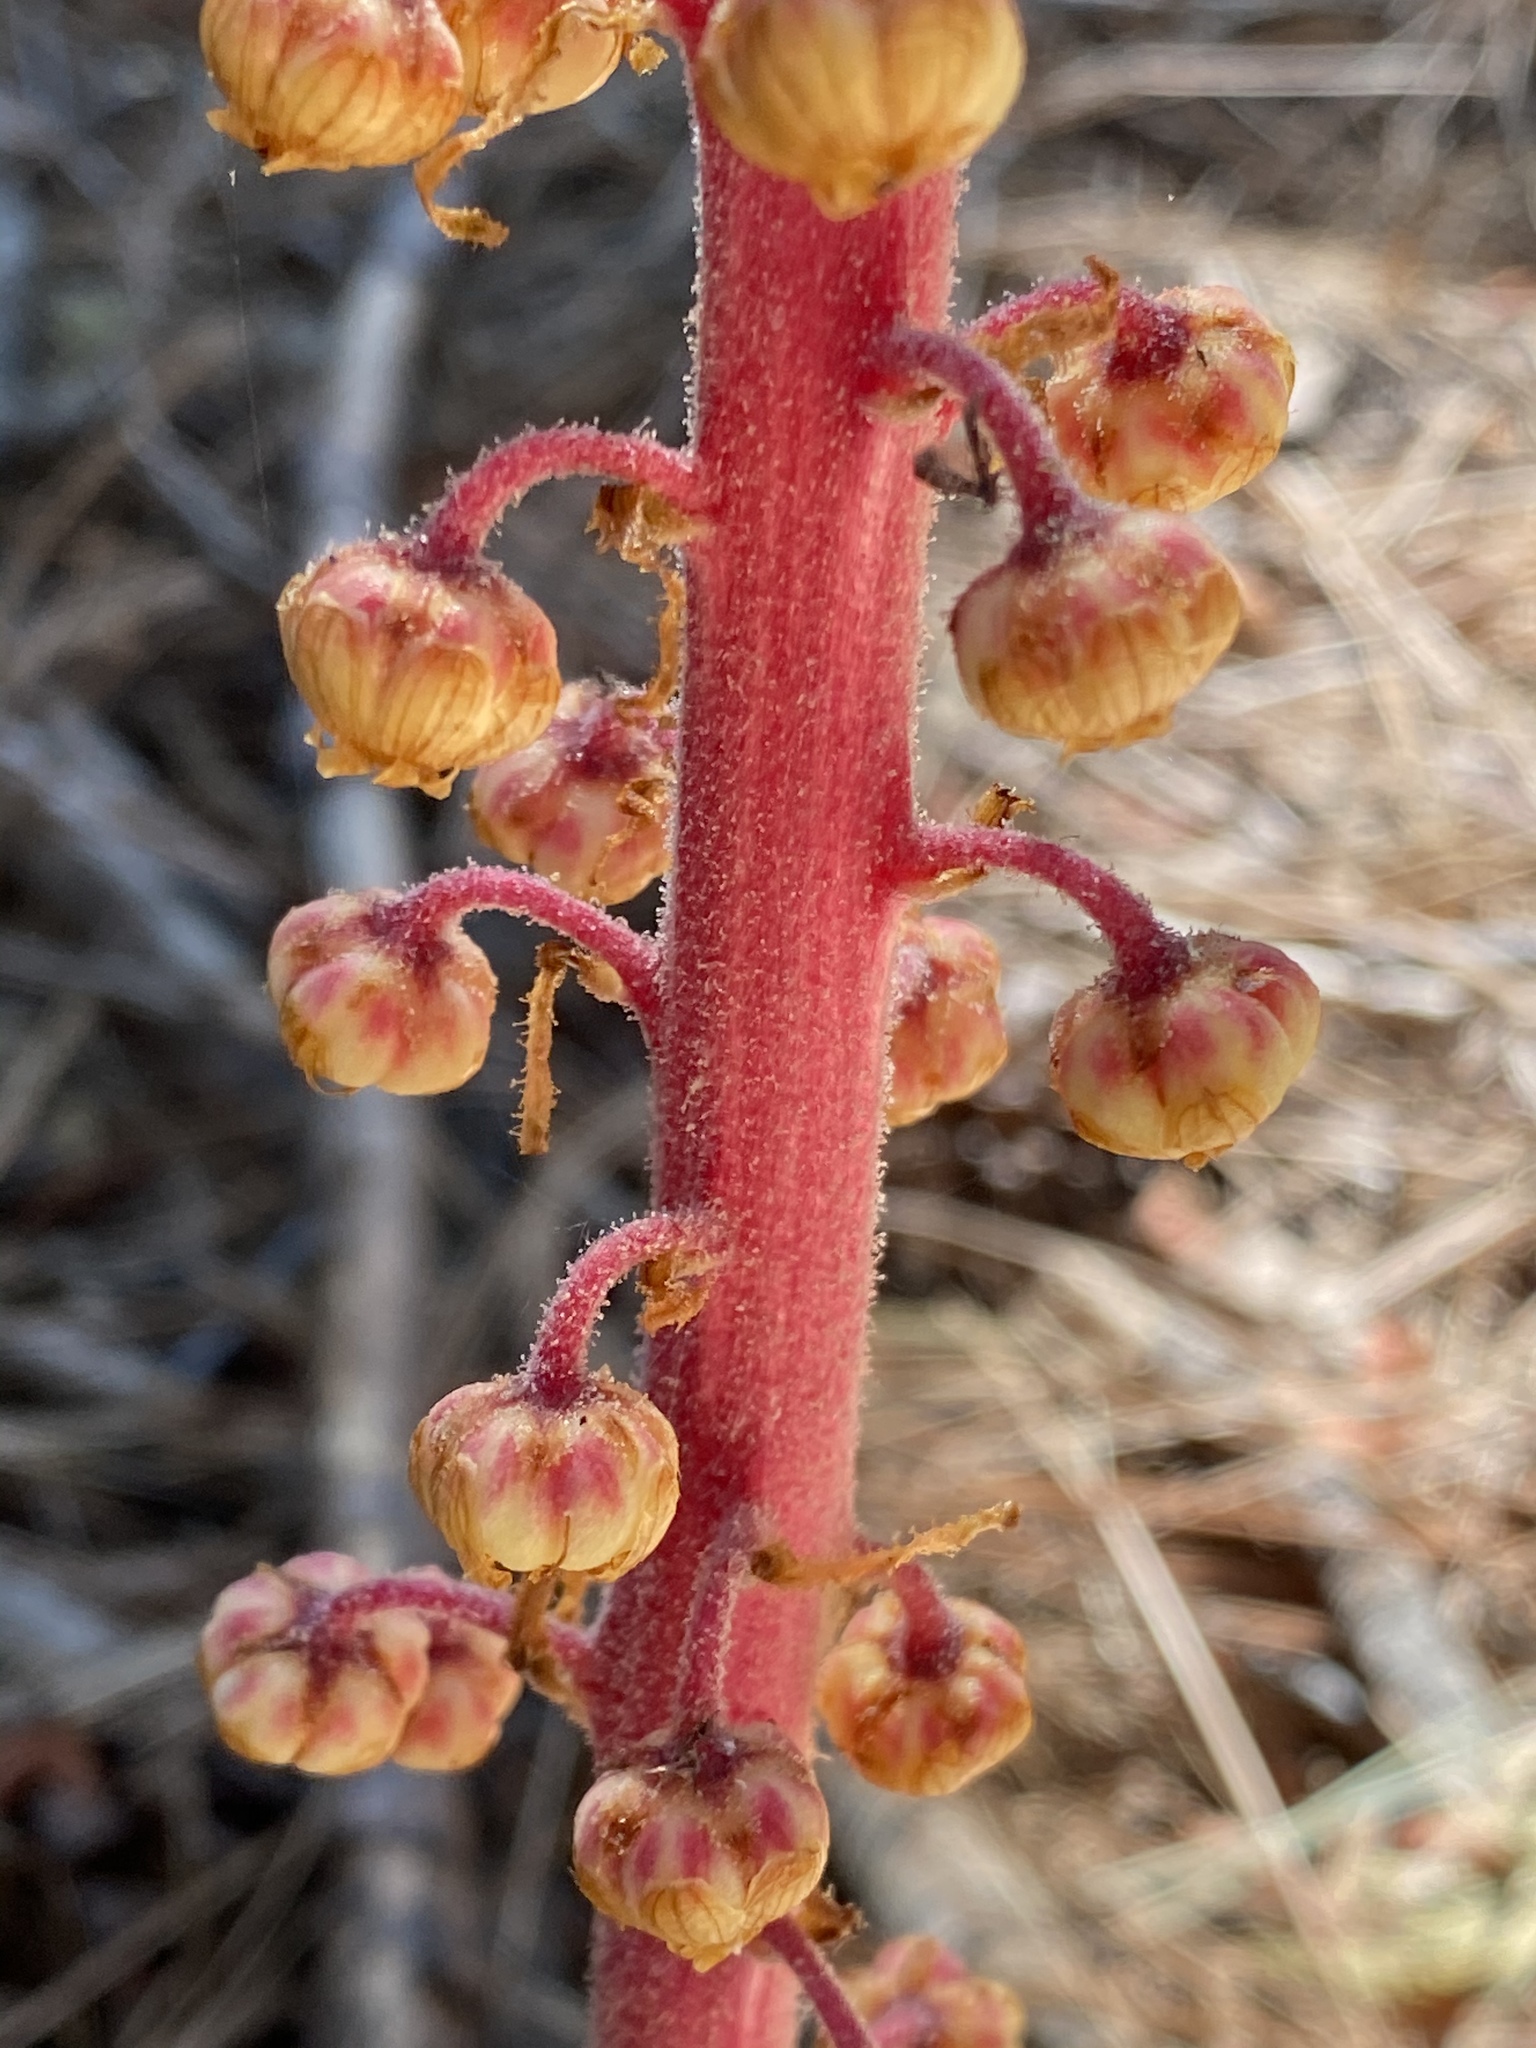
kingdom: Plantae
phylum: Tracheophyta
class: Magnoliopsida
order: Ericales
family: Ericaceae
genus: Pterospora
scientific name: Pterospora andromedea
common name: Giant bird's-nest
